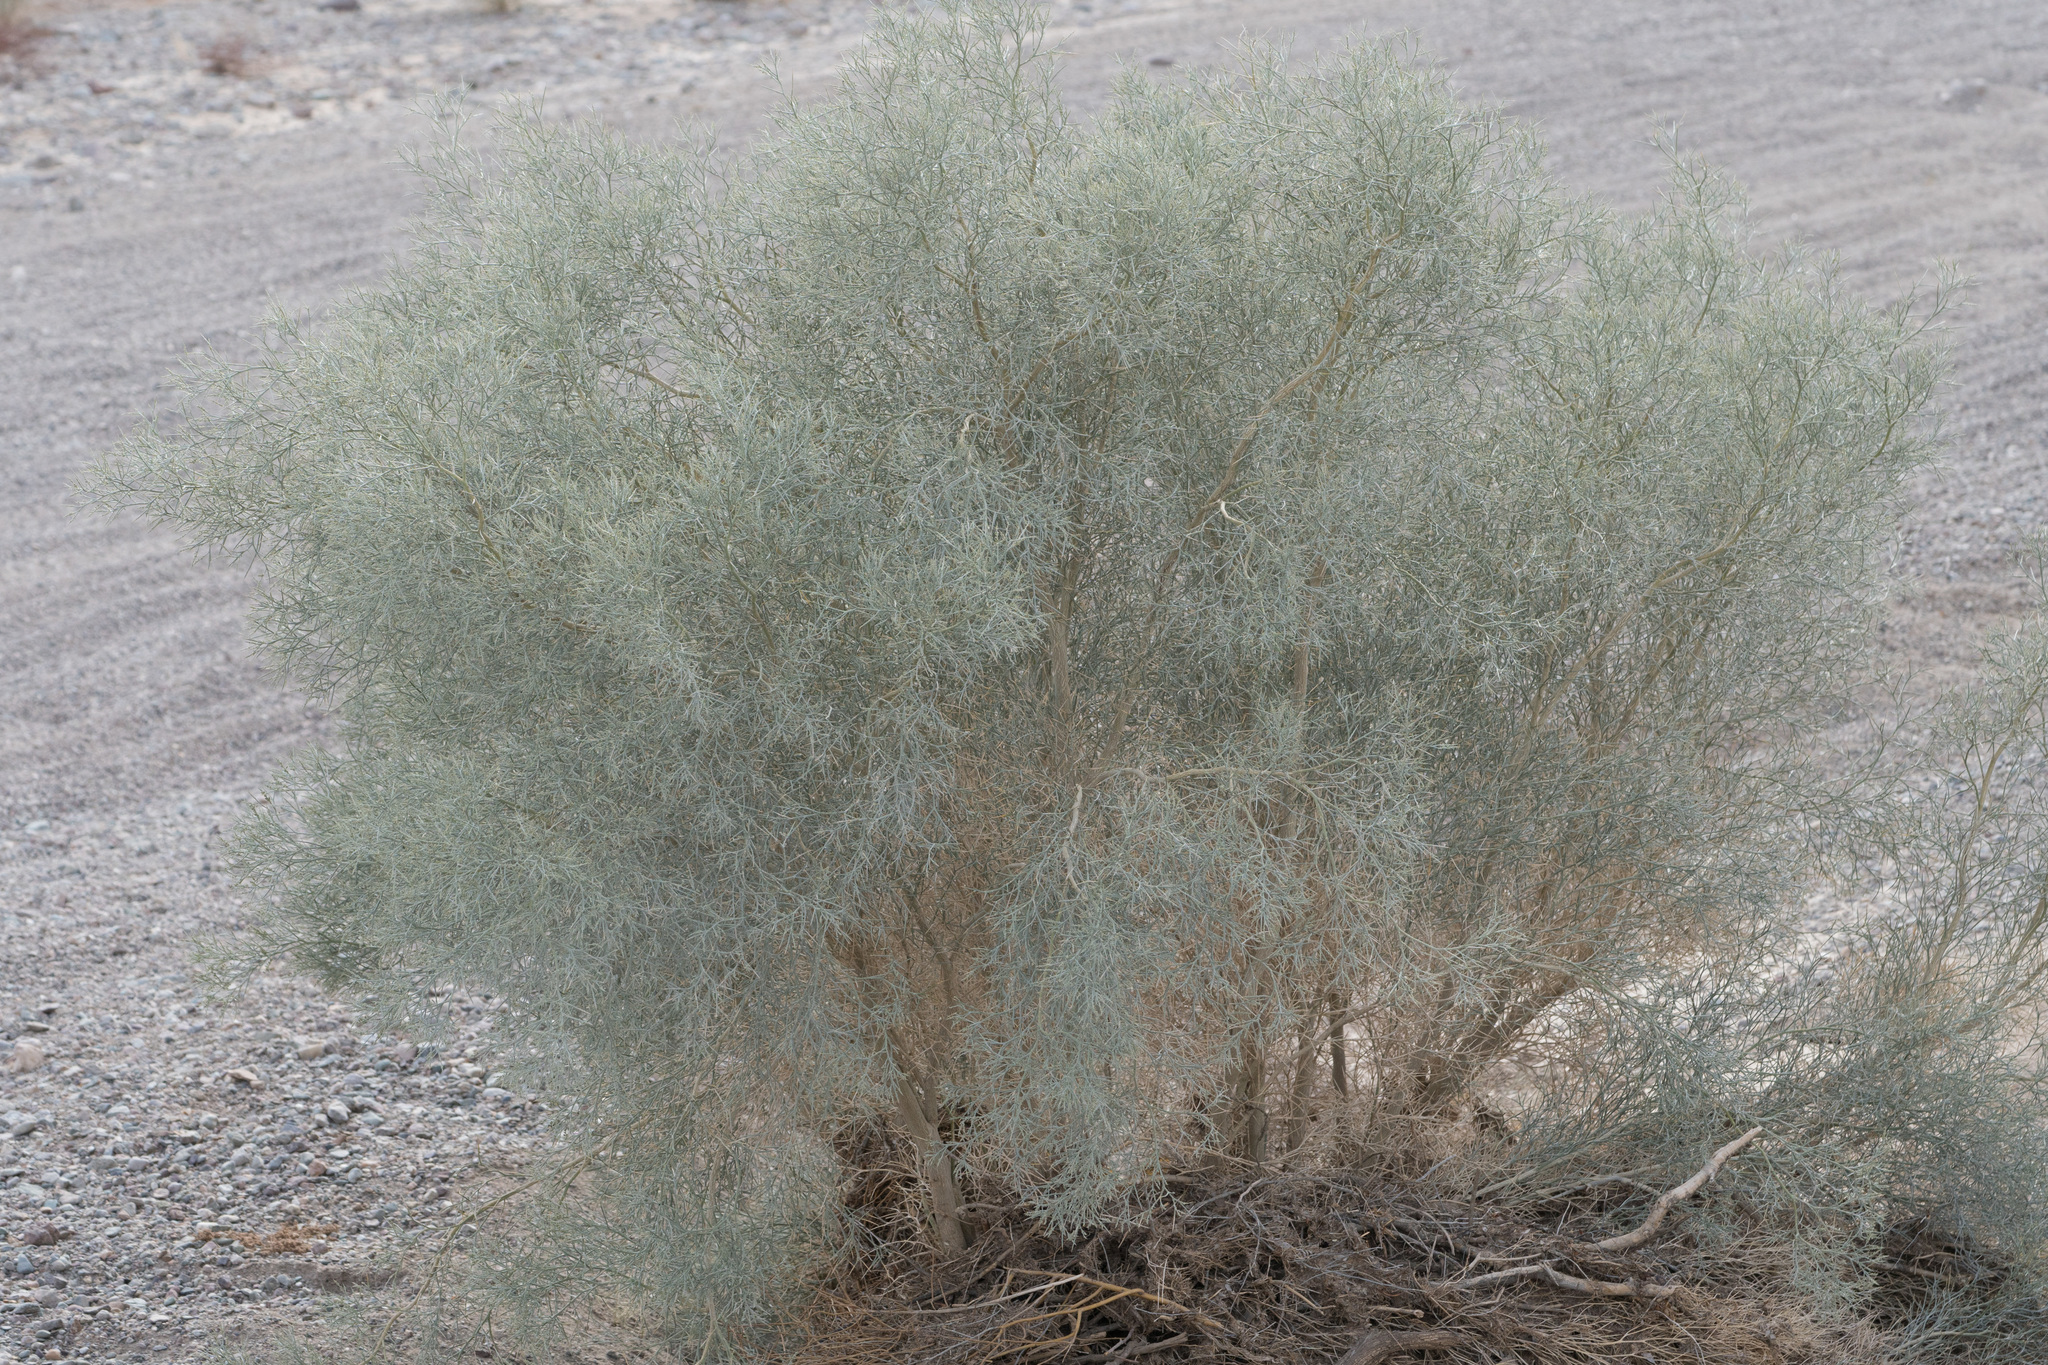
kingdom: Plantae
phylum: Tracheophyta
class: Magnoliopsida
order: Fabales
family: Fabaceae
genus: Psorothamnus
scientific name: Psorothamnus spinosus
